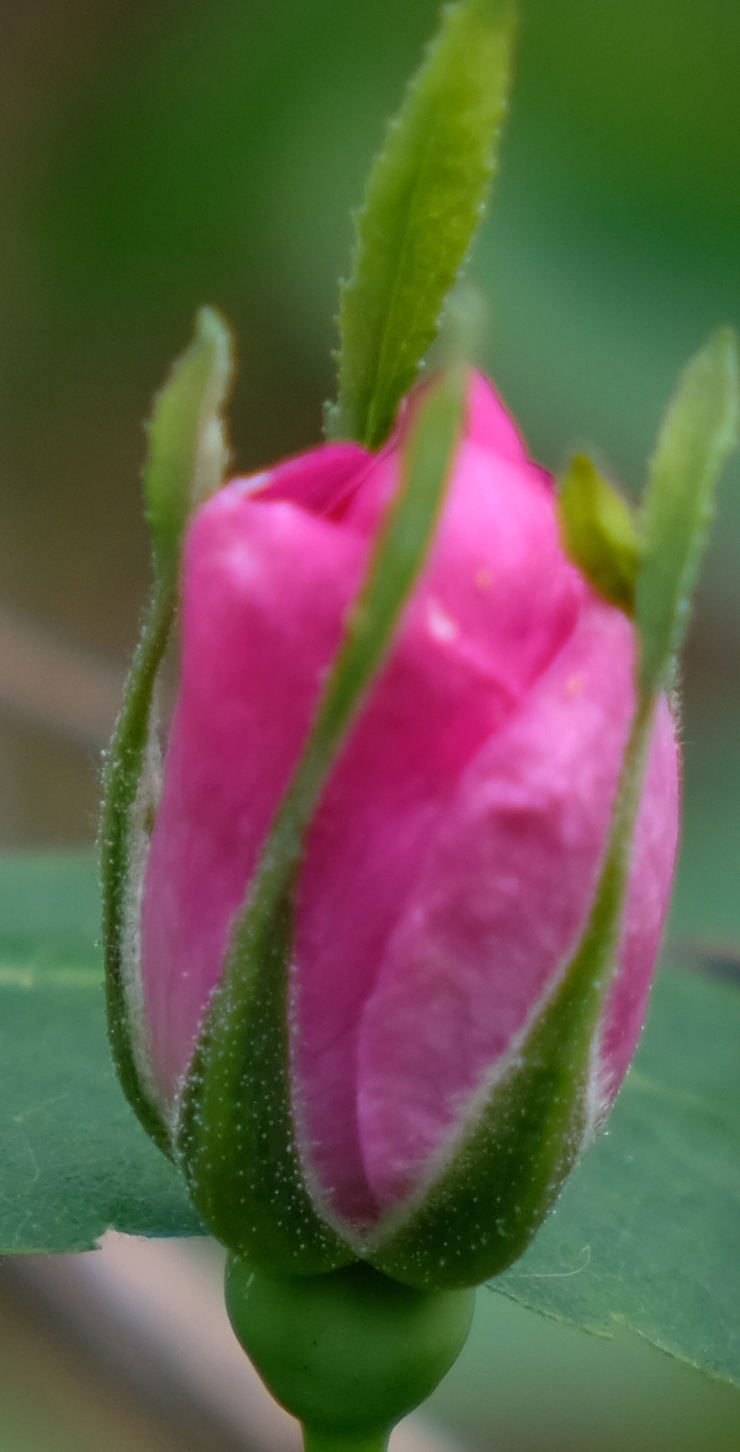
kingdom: Plantae
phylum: Tracheophyta
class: Magnoliopsida
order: Rosales
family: Rosaceae
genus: Rosa
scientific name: Rosa acicularis
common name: Prickly rose
